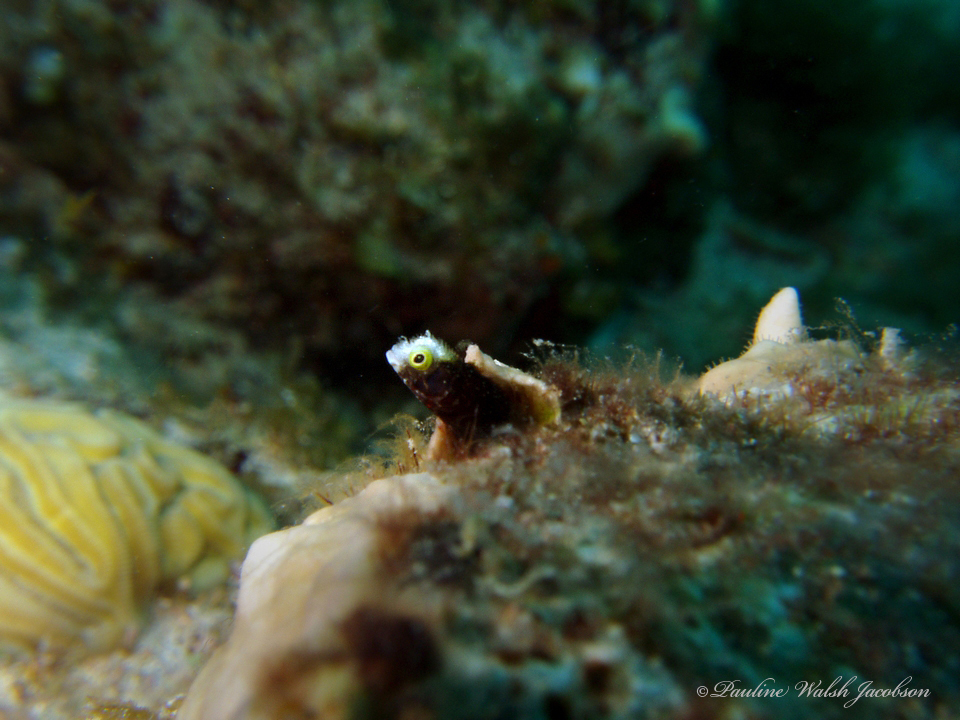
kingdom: Animalia
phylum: Chordata
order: Perciformes
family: Chaenopsidae
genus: Acanthemblemaria
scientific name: Acanthemblemaria spinosa
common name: Spinyhead blenny
